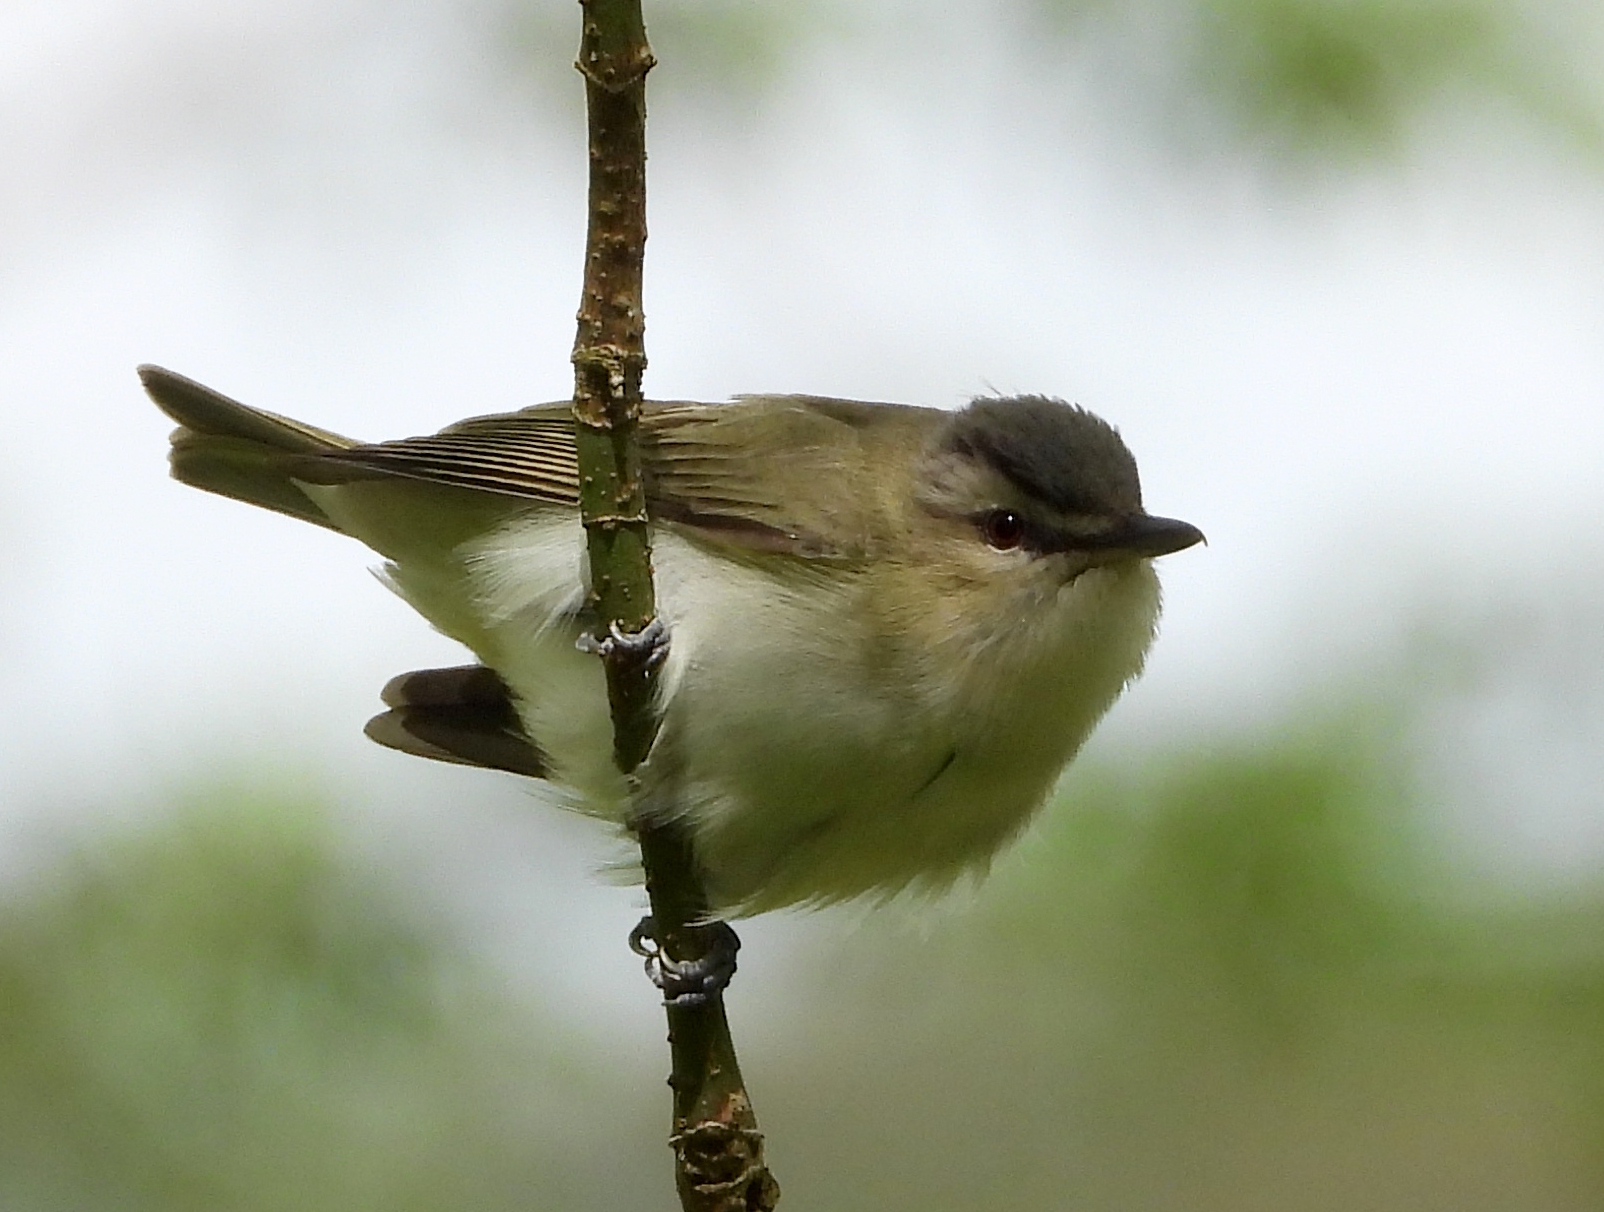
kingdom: Animalia
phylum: Chordata
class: Aves
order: Passeriformes
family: Vireonidae
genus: Vireo
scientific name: Vireo olivaceus
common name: Red-eyed vireo
